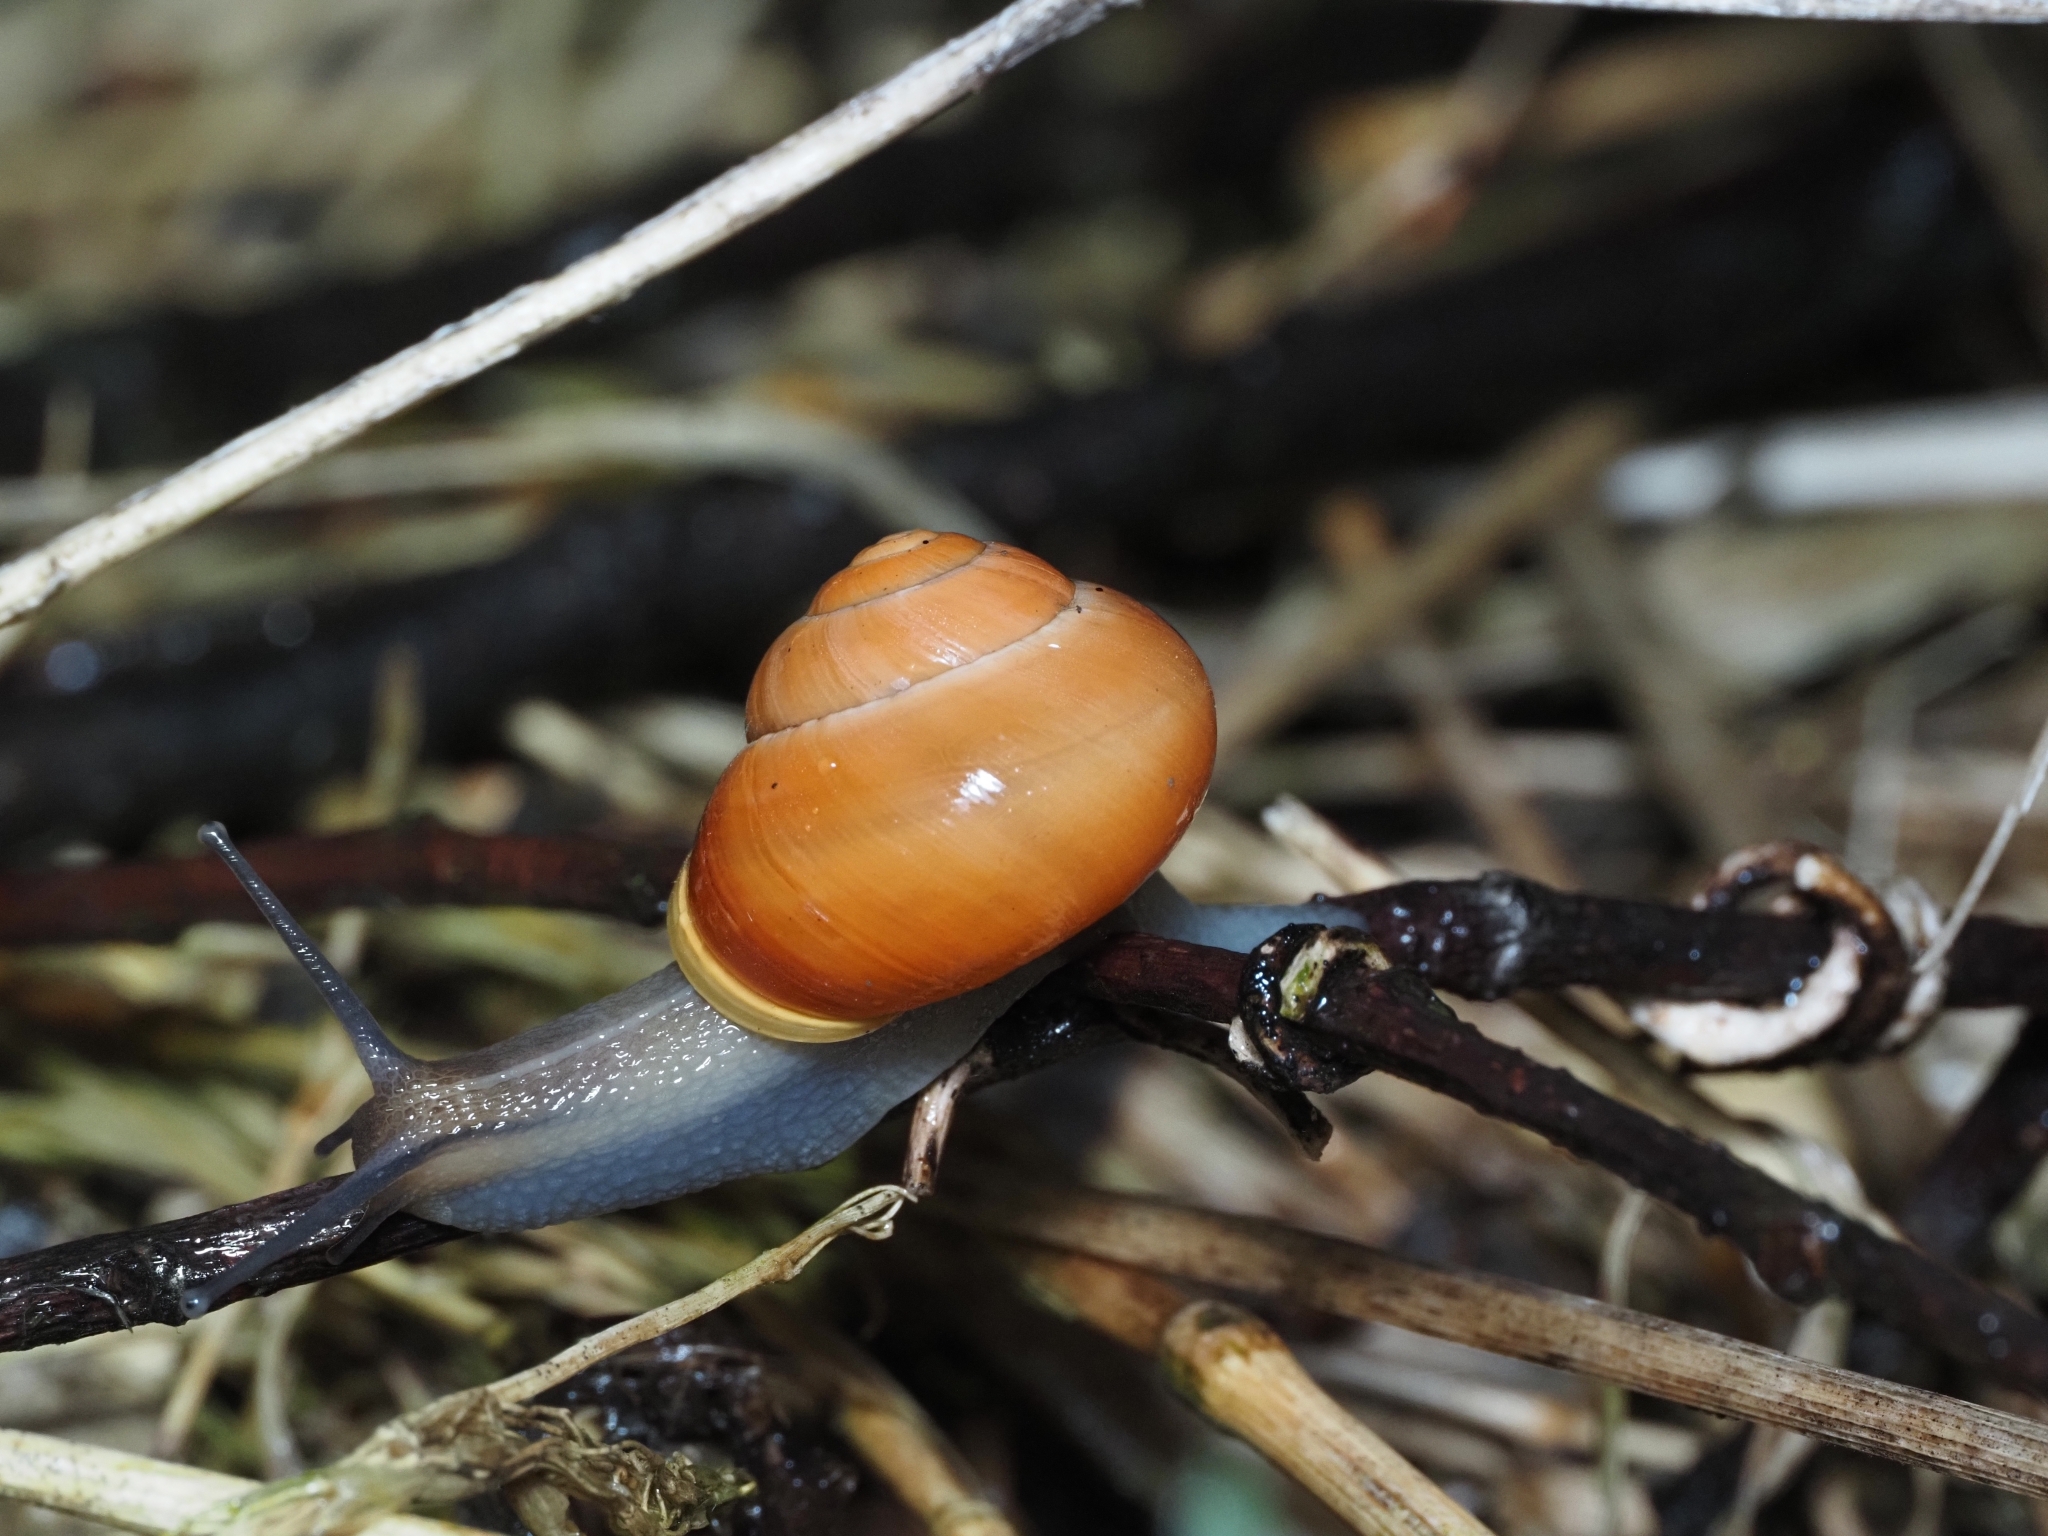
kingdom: Animalia
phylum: Mollusca
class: Gastropoda
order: Stylommatophora
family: Helicidae
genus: Cepaea
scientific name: Cepaea hortensis
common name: White-lip gardensnail
